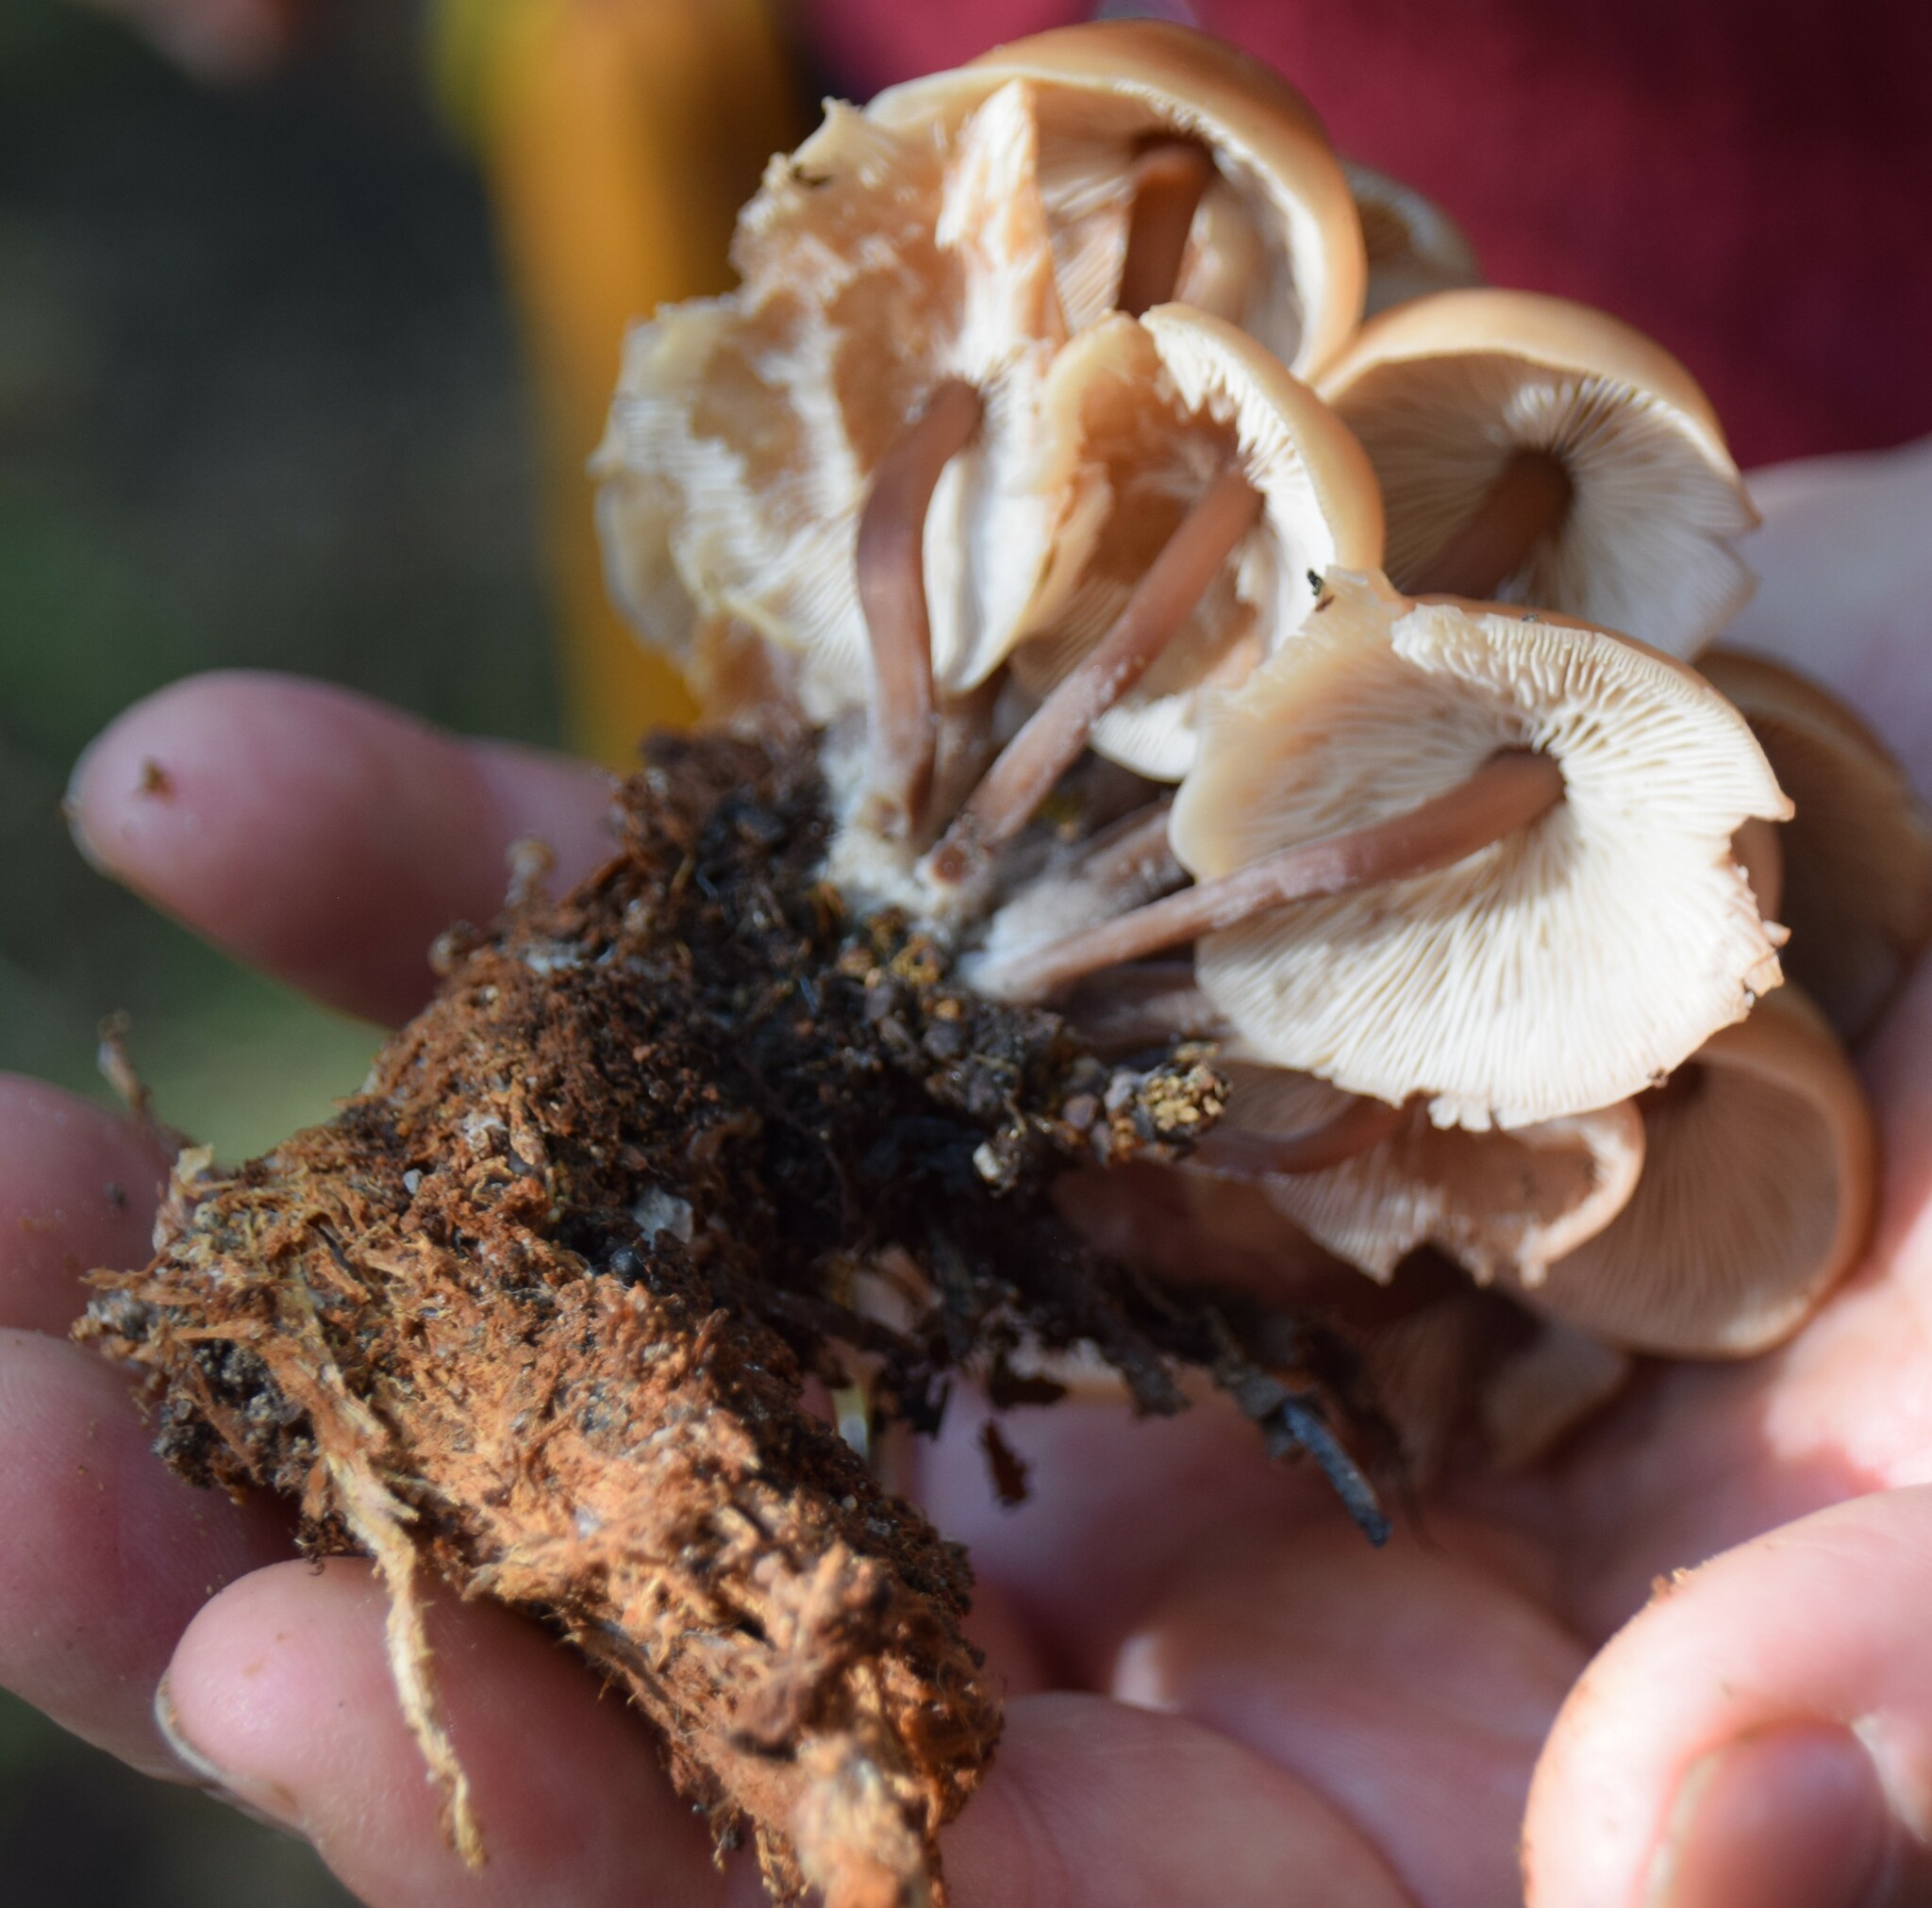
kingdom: Fungi
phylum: Basidiomycota
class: Agaricomycetes
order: Agaricales
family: Omphalotaceae
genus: Connopus
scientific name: Connopus acervatus
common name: Cluster cap
